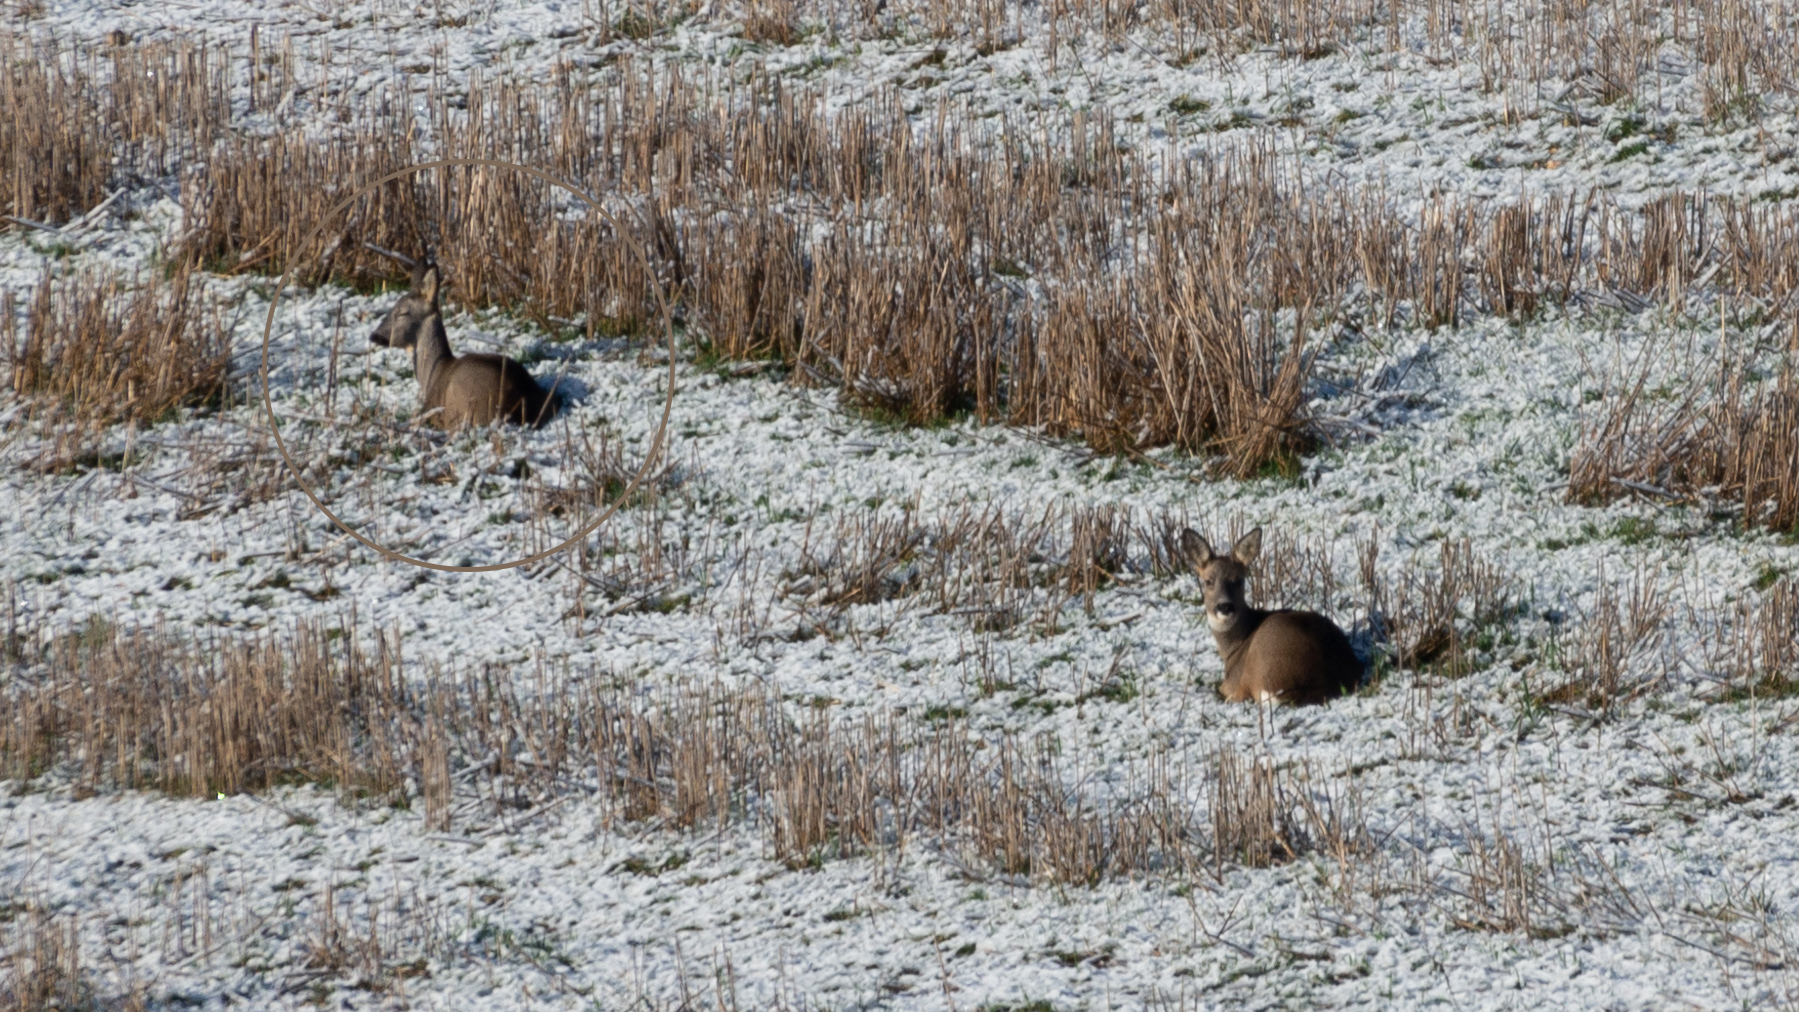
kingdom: Animalia
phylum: Chordata
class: Mammalia
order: Artiodactyla
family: Cervidae
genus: Capreolus
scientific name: Capreolus capreolus
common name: Western roe deer
